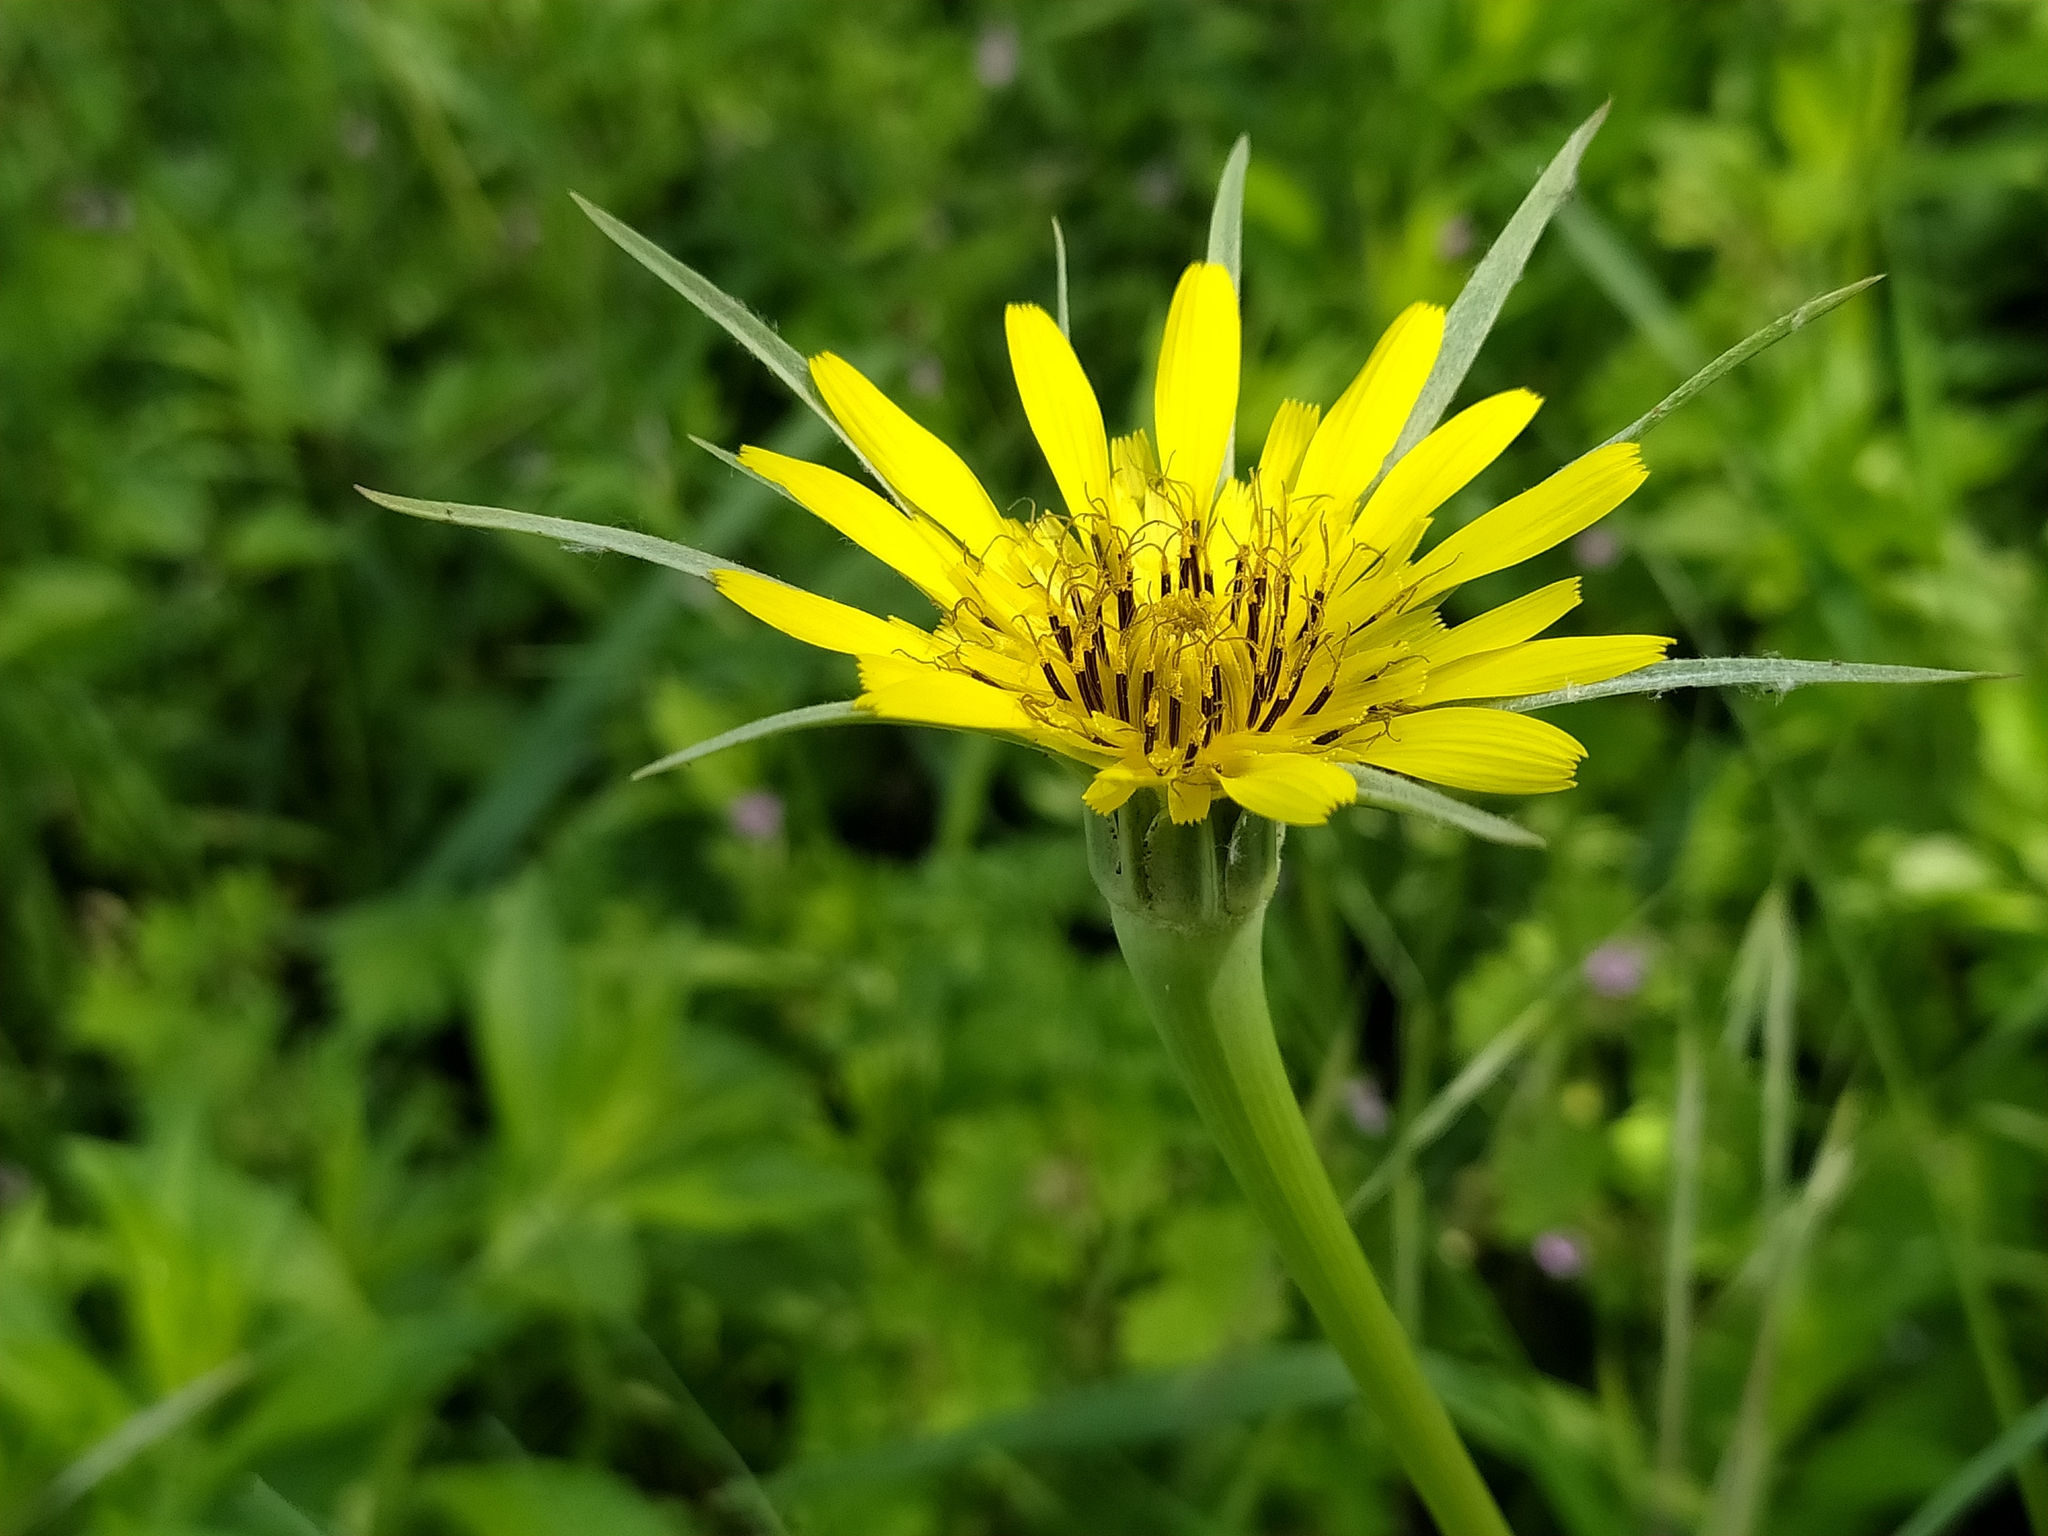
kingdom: Plantae
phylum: Tracheophyta
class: Magnoliopsida
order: Asterales
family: Asteraceae
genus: Tragopogon
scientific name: Tragopogon dubius
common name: Yellow salsify
